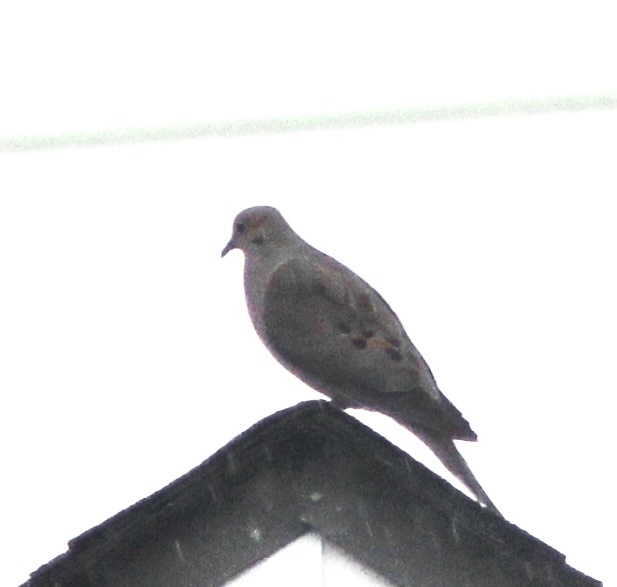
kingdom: Animalia
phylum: Chordata
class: Aves
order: Columbiformes
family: Columbidae
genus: Zenaida
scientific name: Zenaida macroura
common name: Mourning dove
